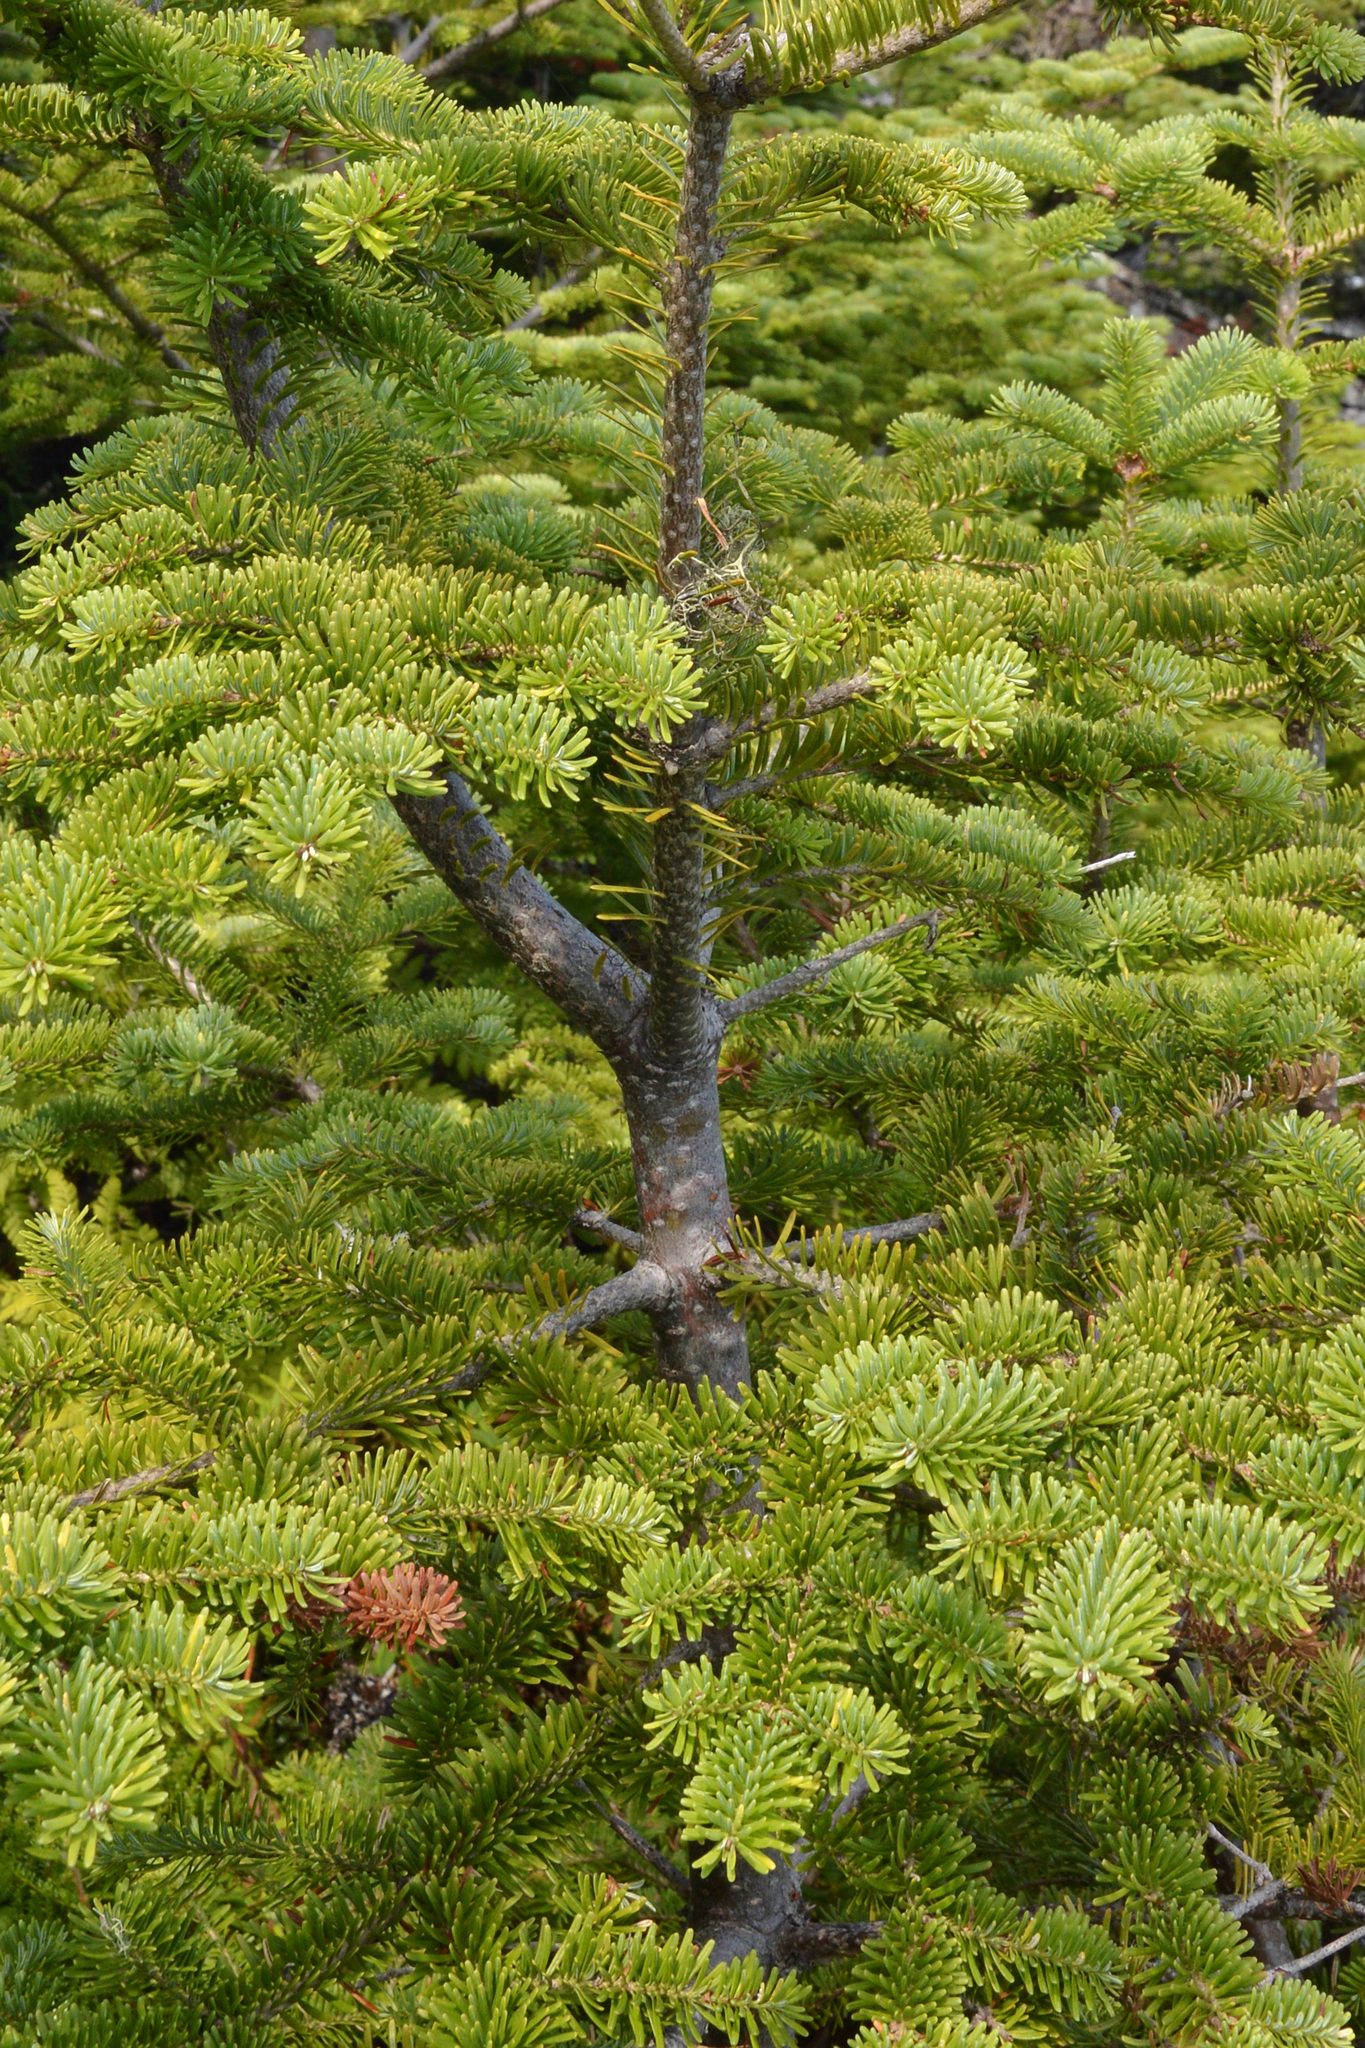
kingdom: Plantae
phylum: Tracheophyta
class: Pinopsida
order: Pinales
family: Pinaceae
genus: Abies
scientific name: Abies balsamea
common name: Balsam fir
